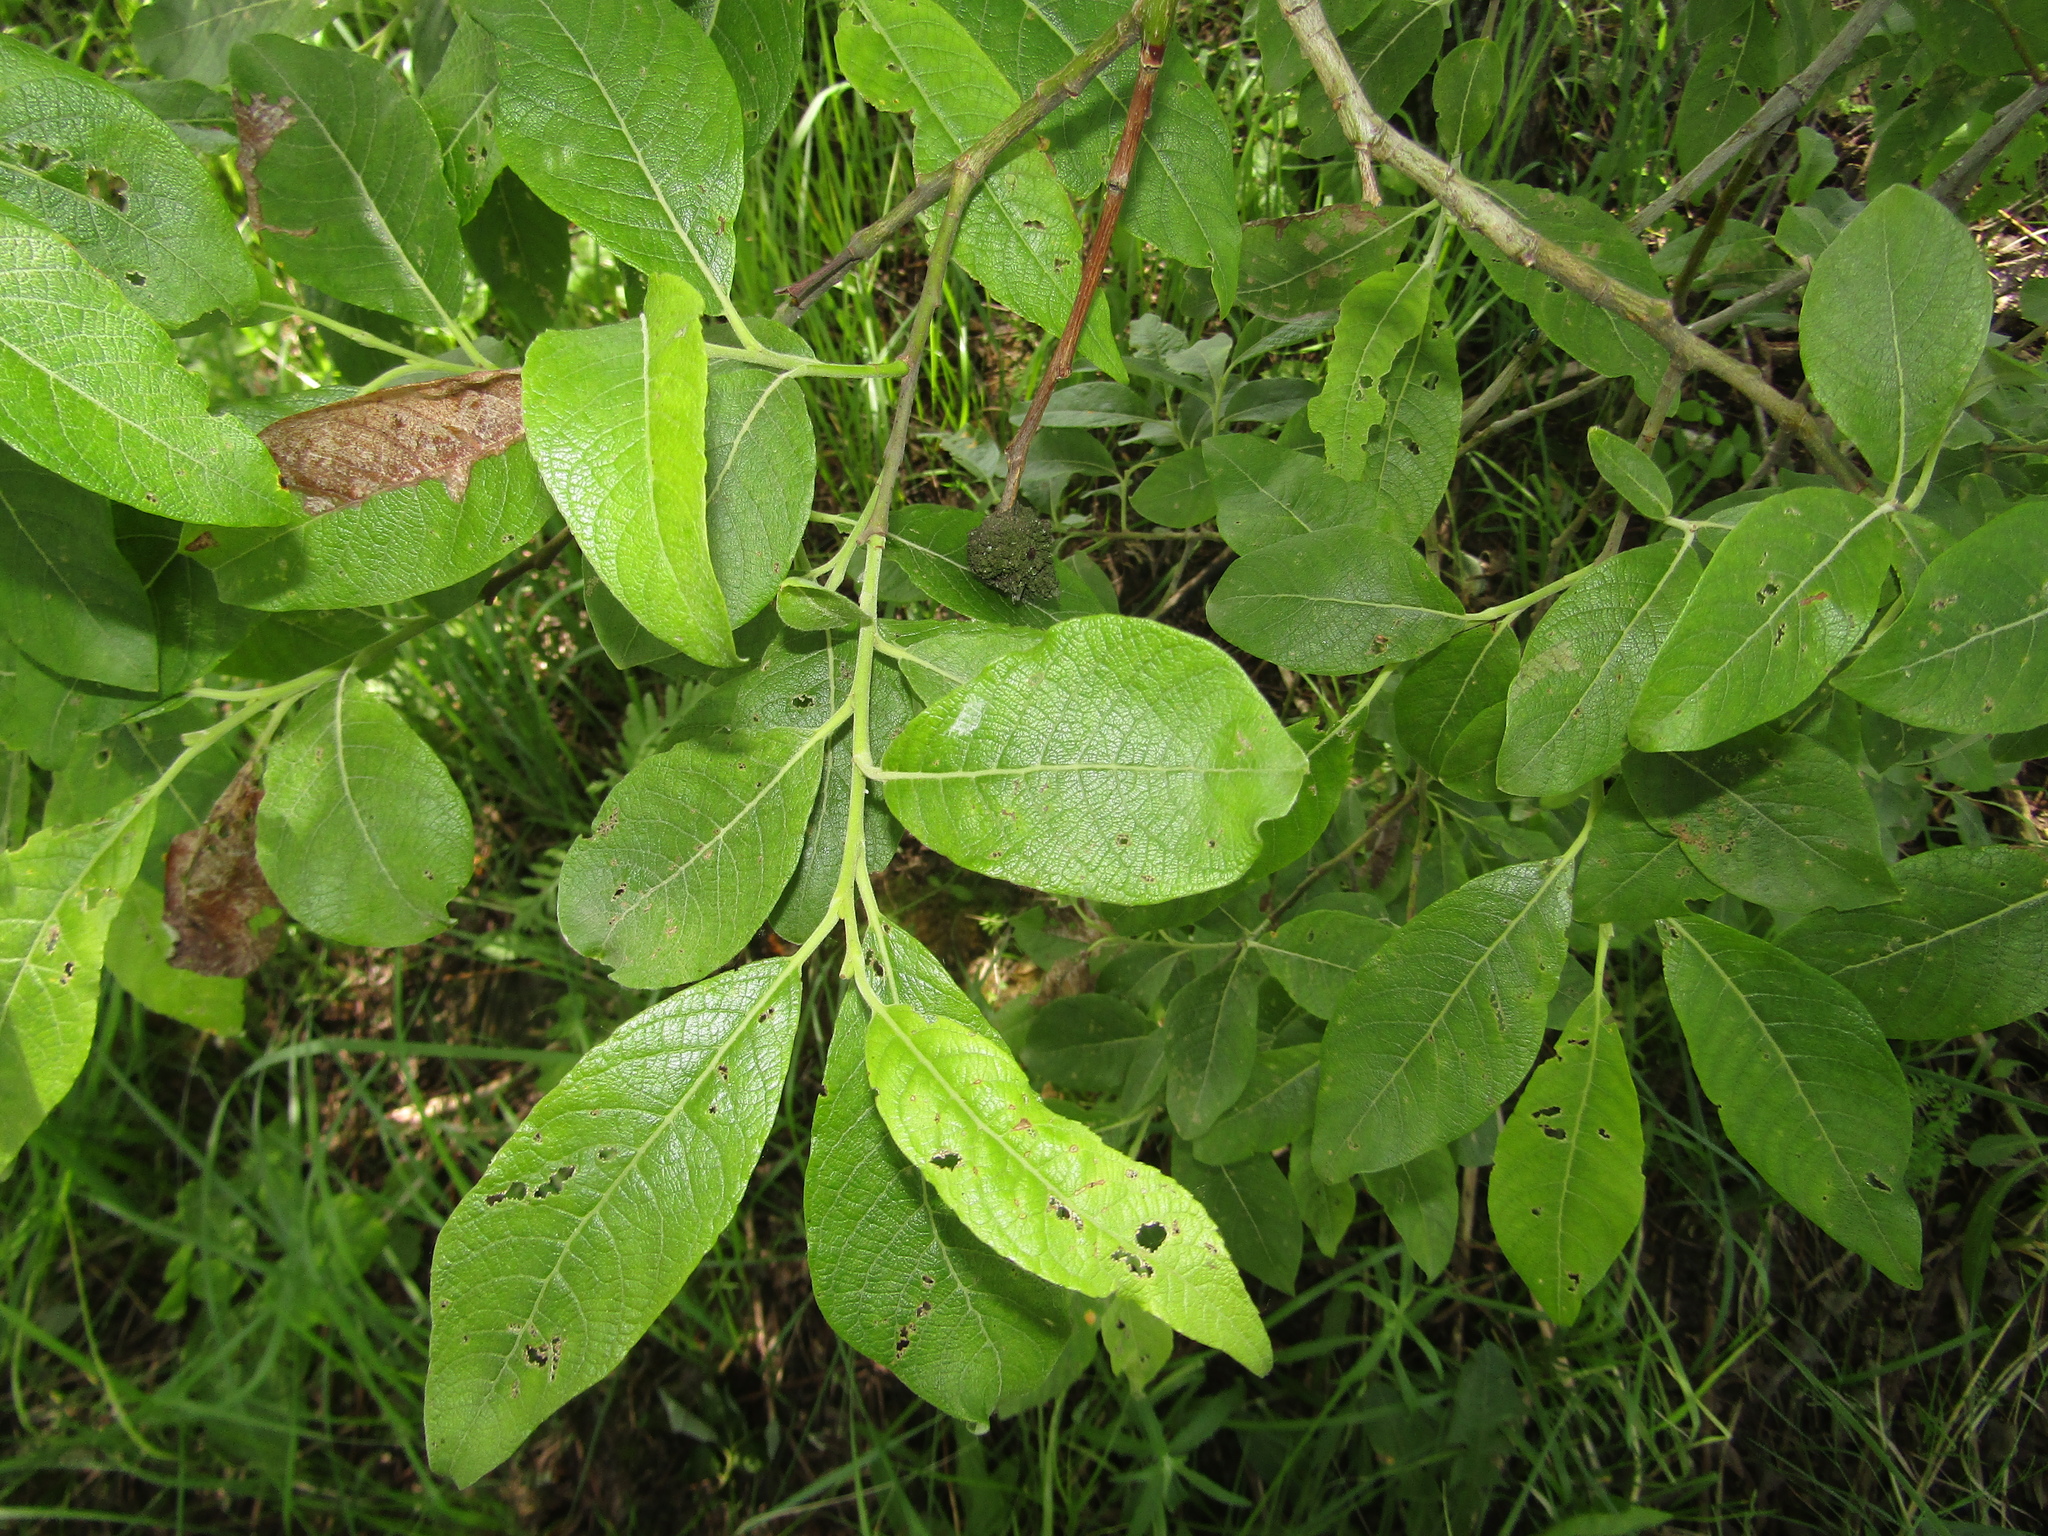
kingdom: Plantae
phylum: Tracheophyta
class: Magnoliopsida
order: Malpighiales
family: Salicaceae
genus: Salix
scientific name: Salix caprea
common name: Goat willow
